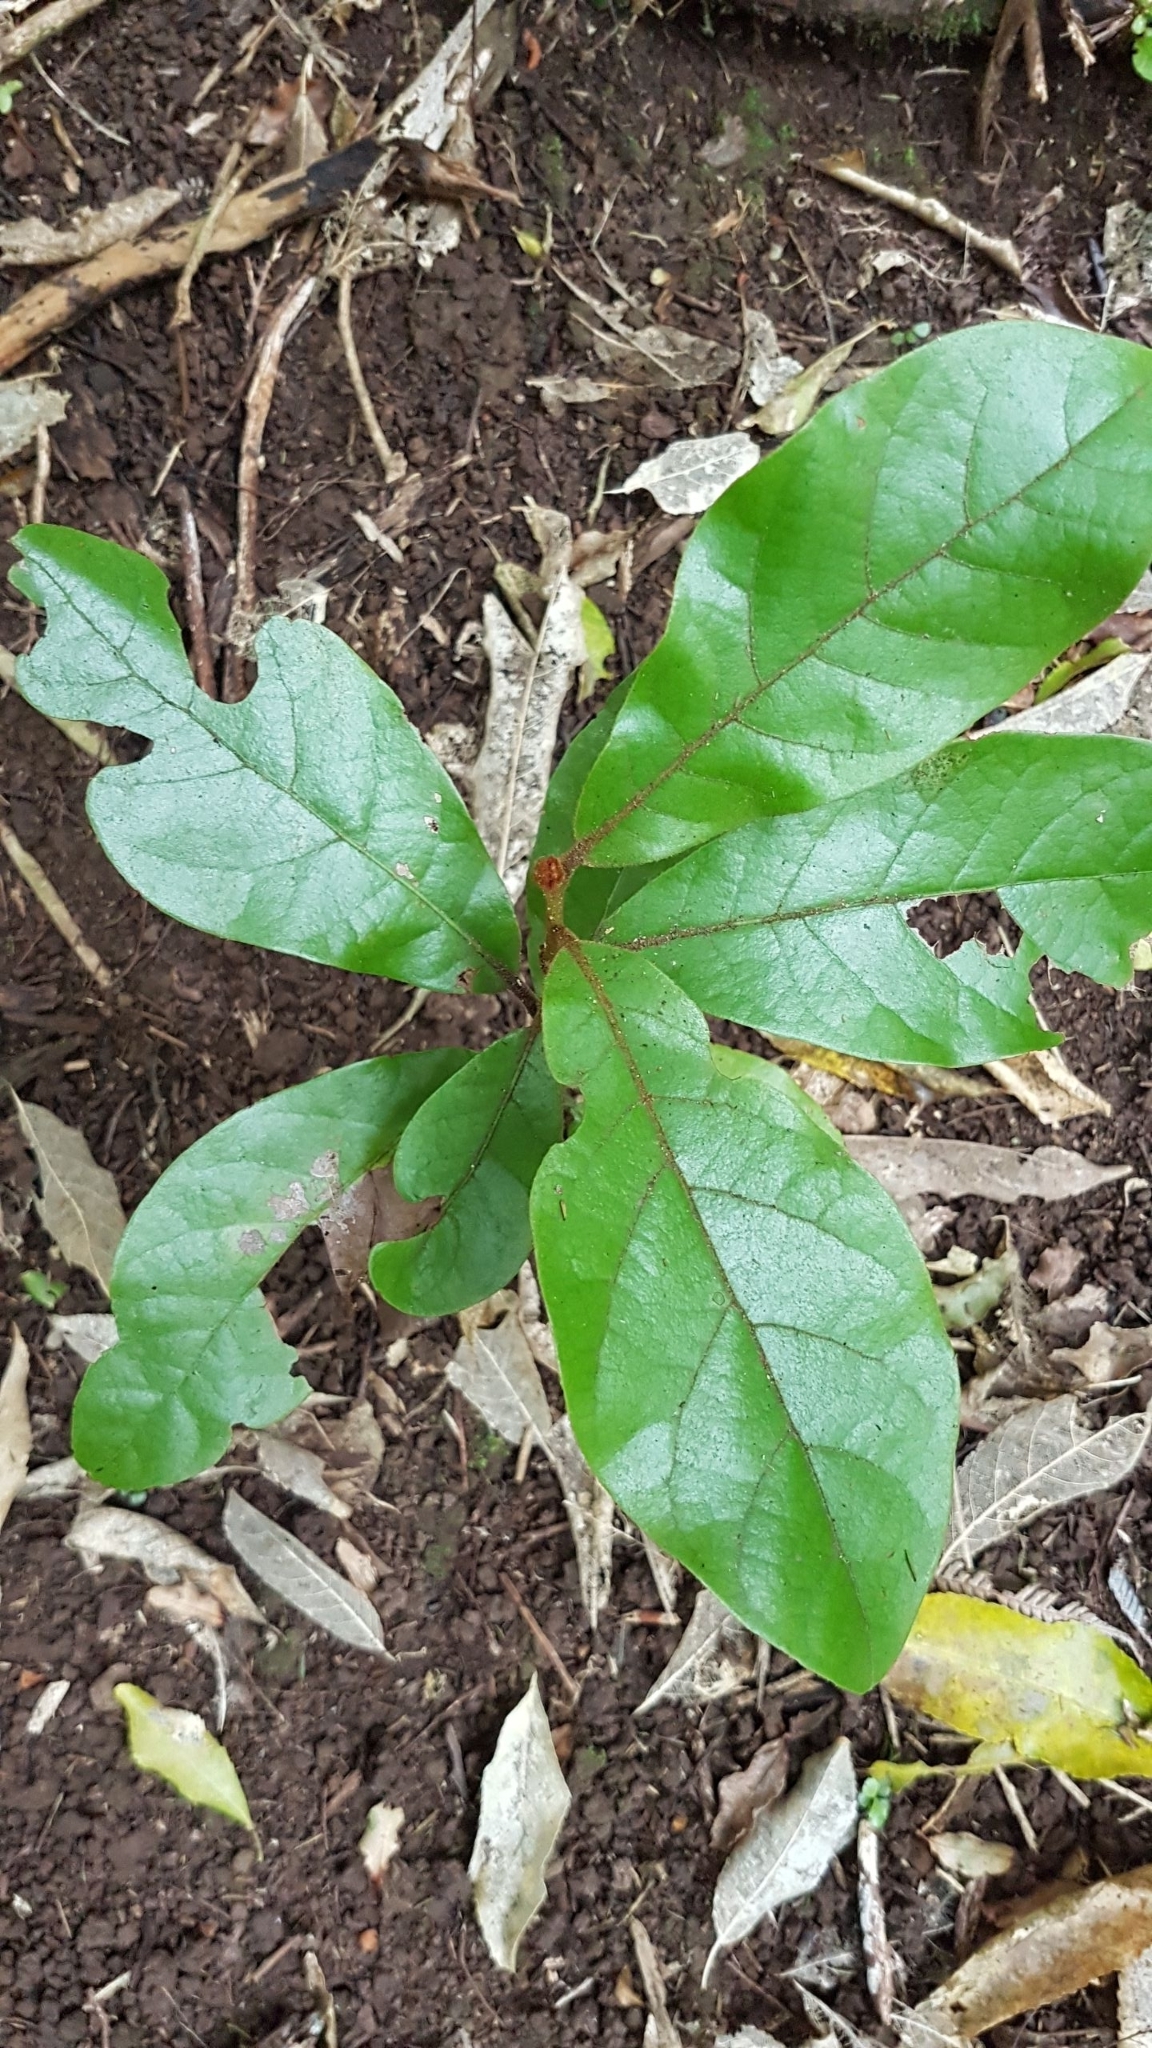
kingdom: Plantae
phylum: Tracheophyta
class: Magnoliopsida
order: Laurales
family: Lauraceae
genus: Beilschmiedia
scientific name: Beilschmiedia tarairi
